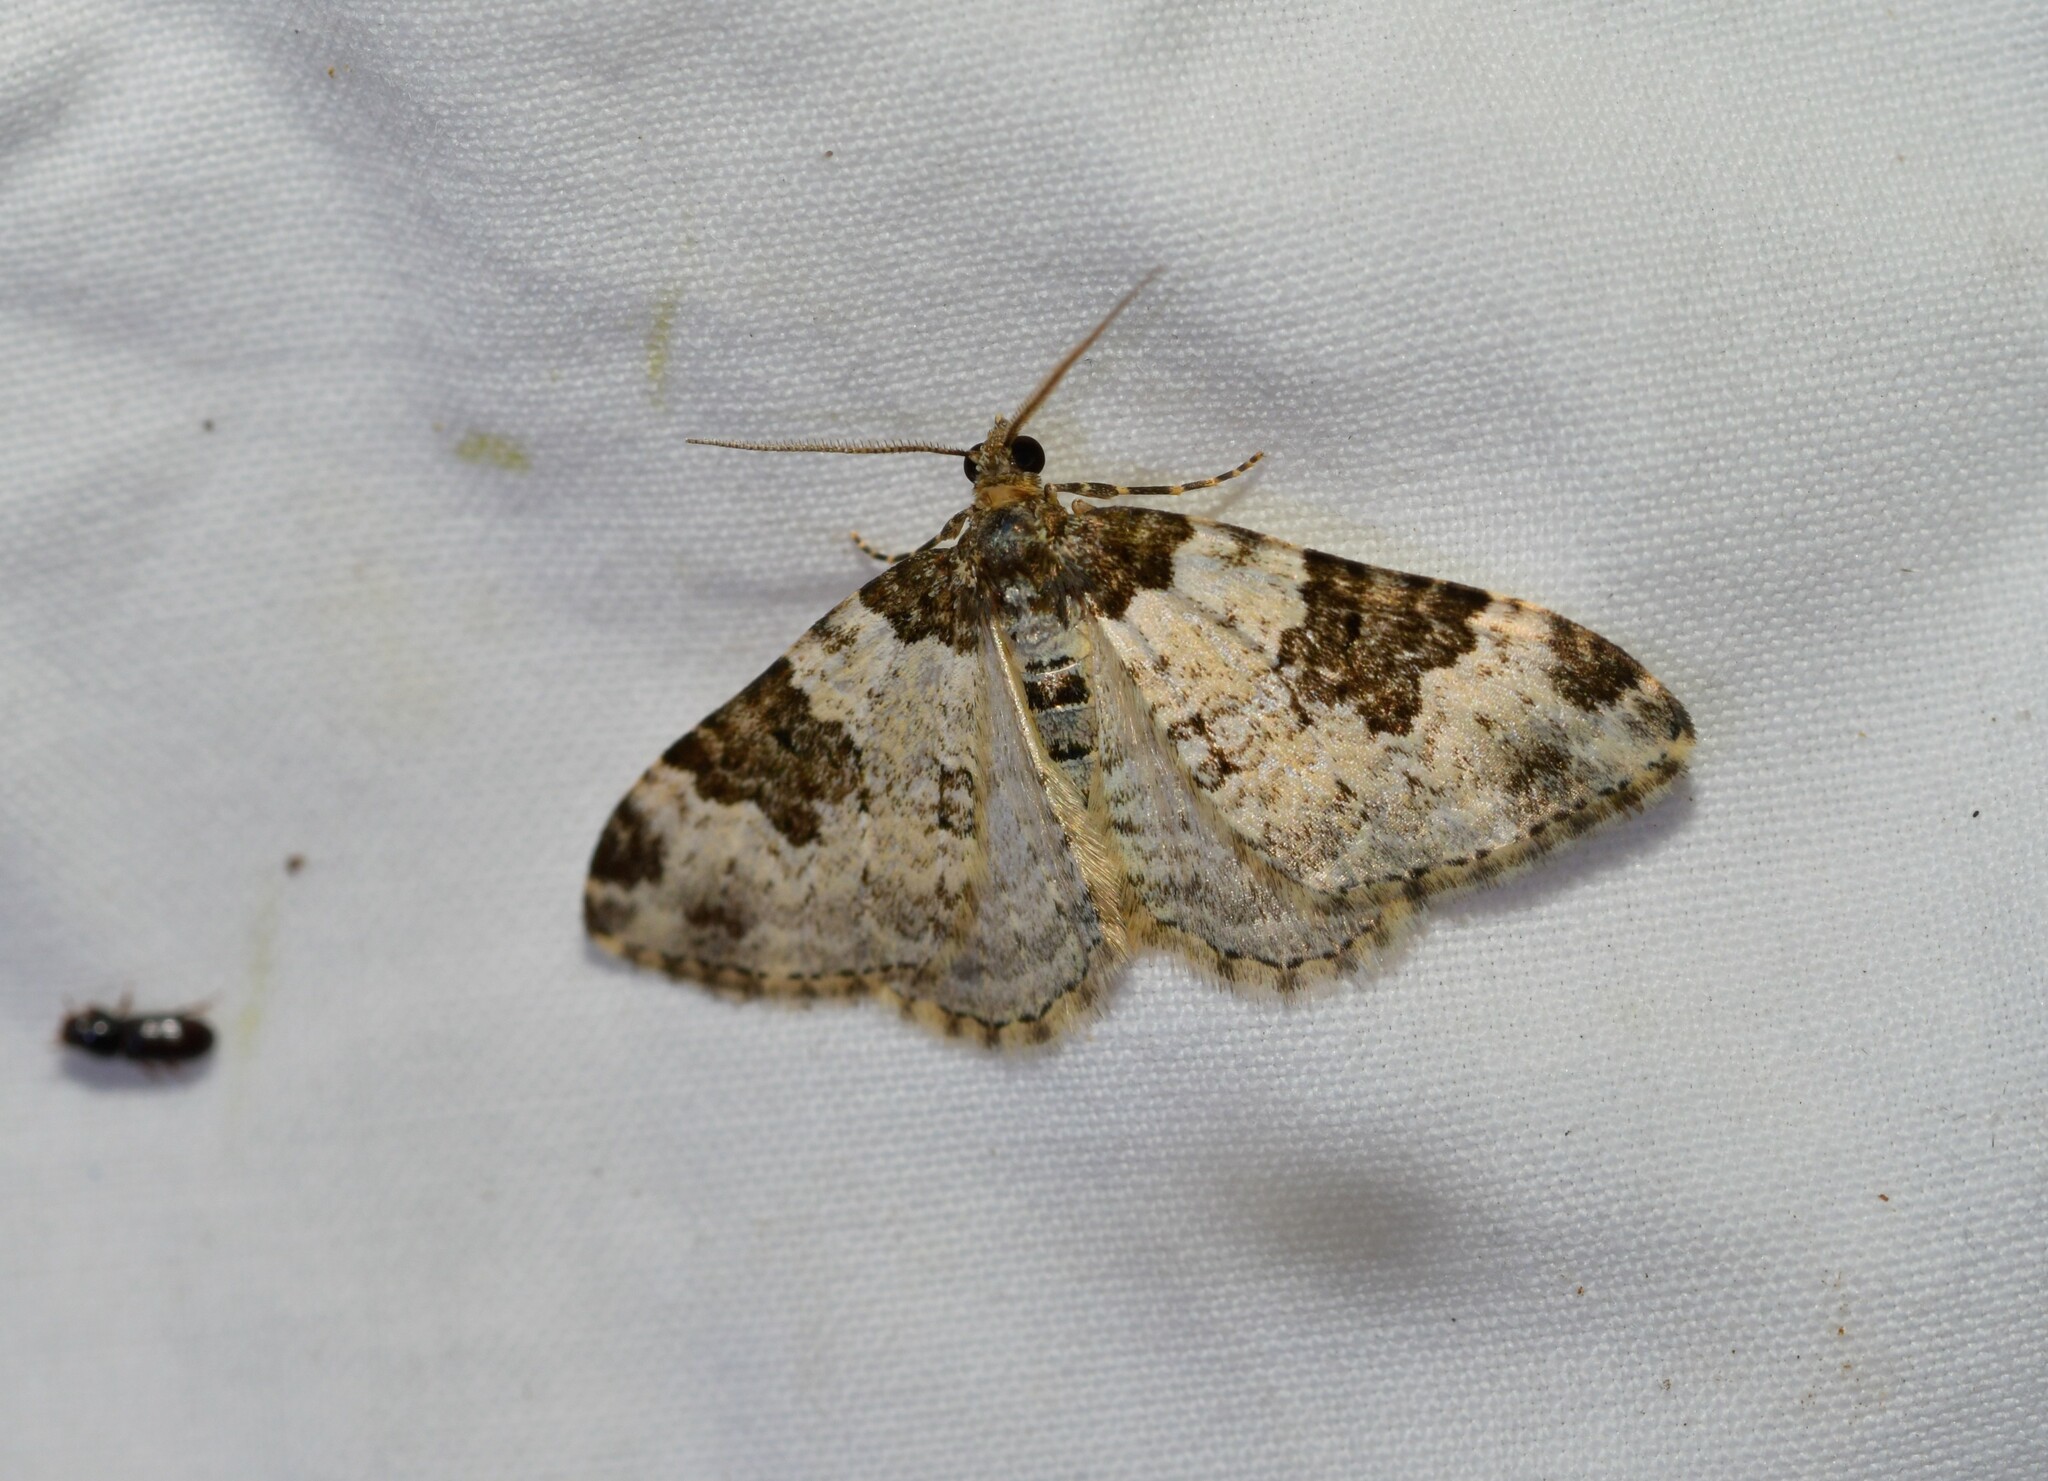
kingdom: Animalia
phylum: Arthropoda
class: Insecta
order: Lepidoptera
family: Geometridae
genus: Xanthorhoe
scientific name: Xanthorhoe fluctuata
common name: Garden carpet
